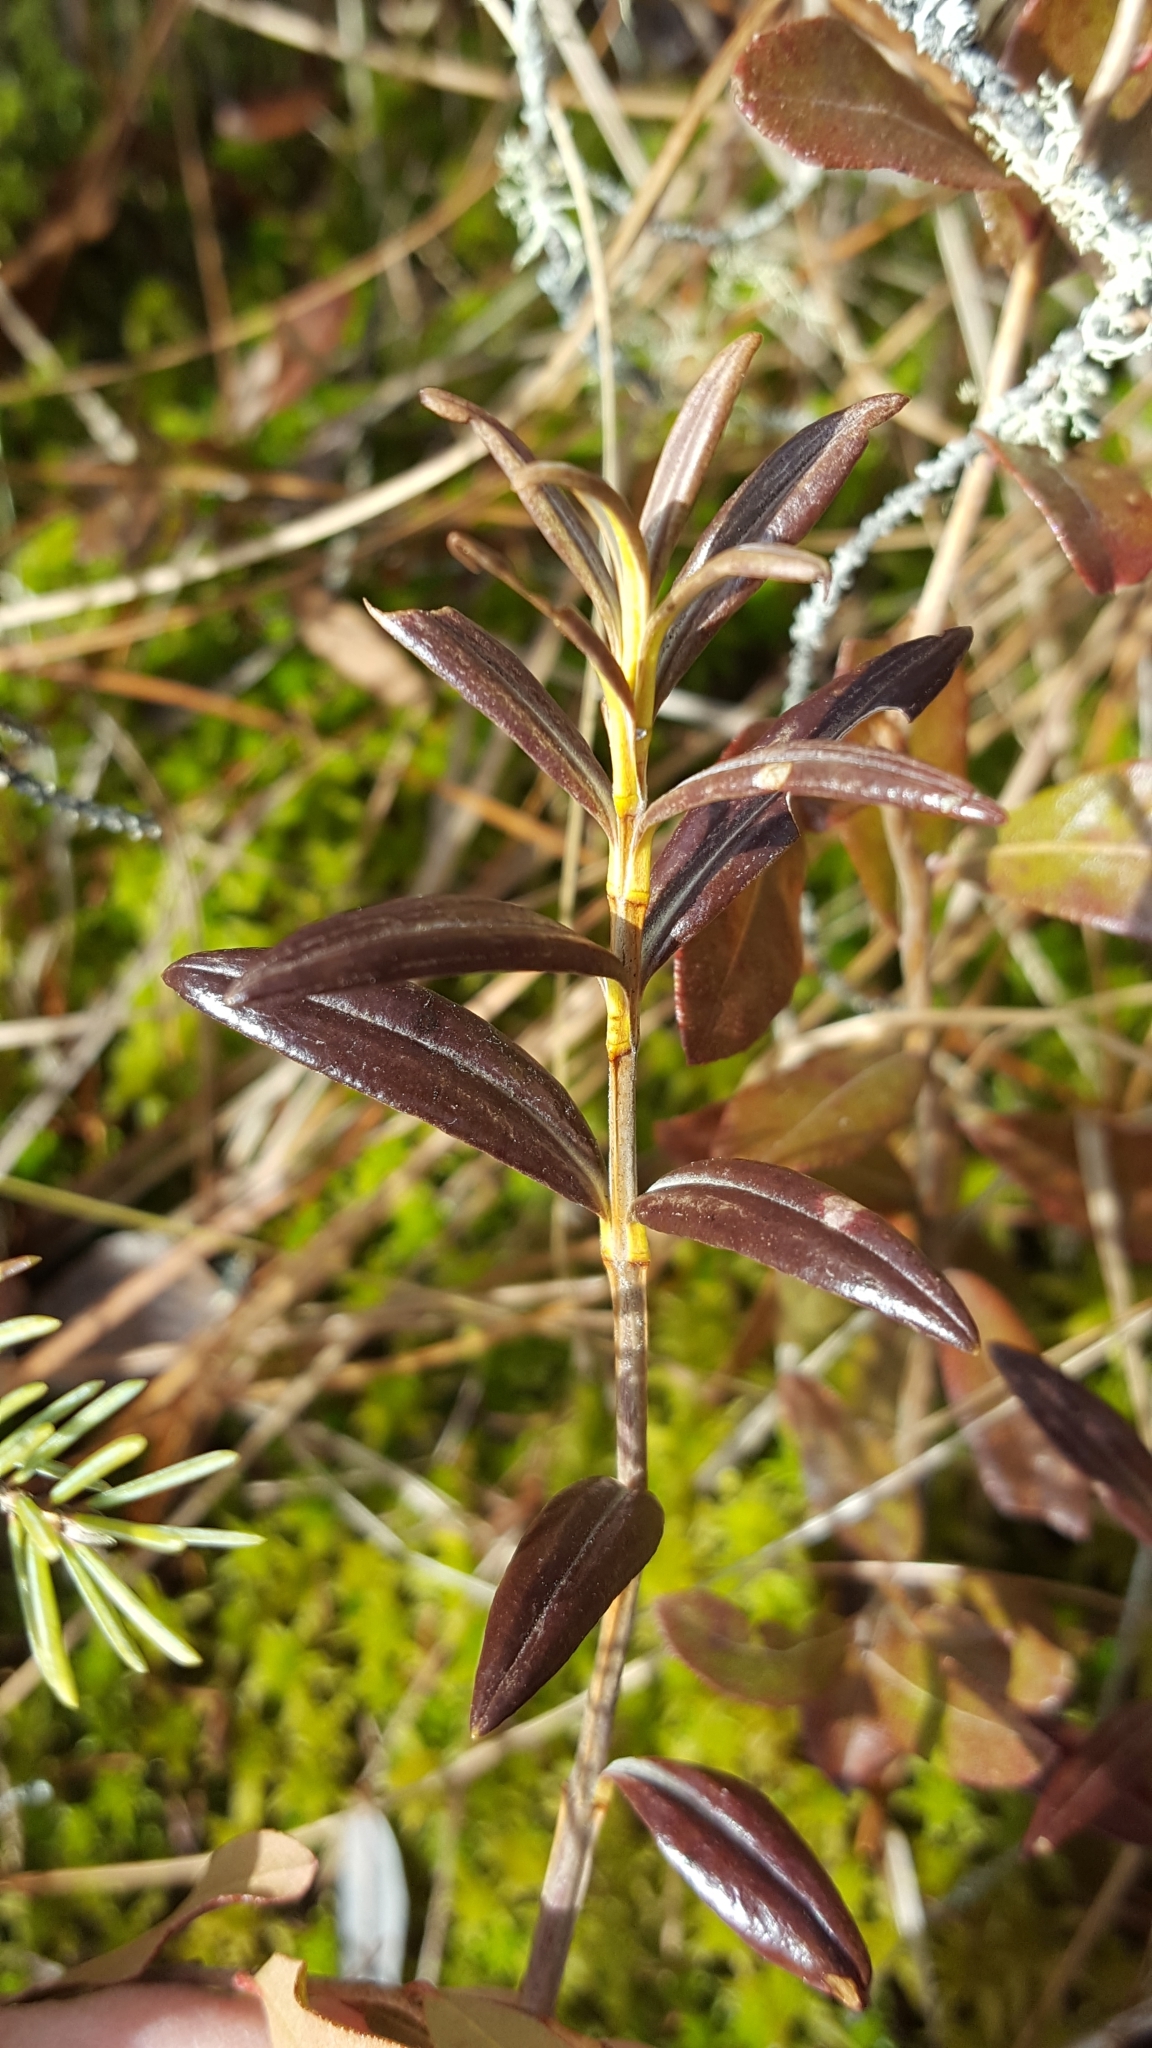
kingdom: Plantae
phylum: Tracheophyta
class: Magnoliopsida
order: Ericales
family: Ericaceae
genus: Kalmia
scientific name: Kalmia polifolia
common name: Bog-laurel
